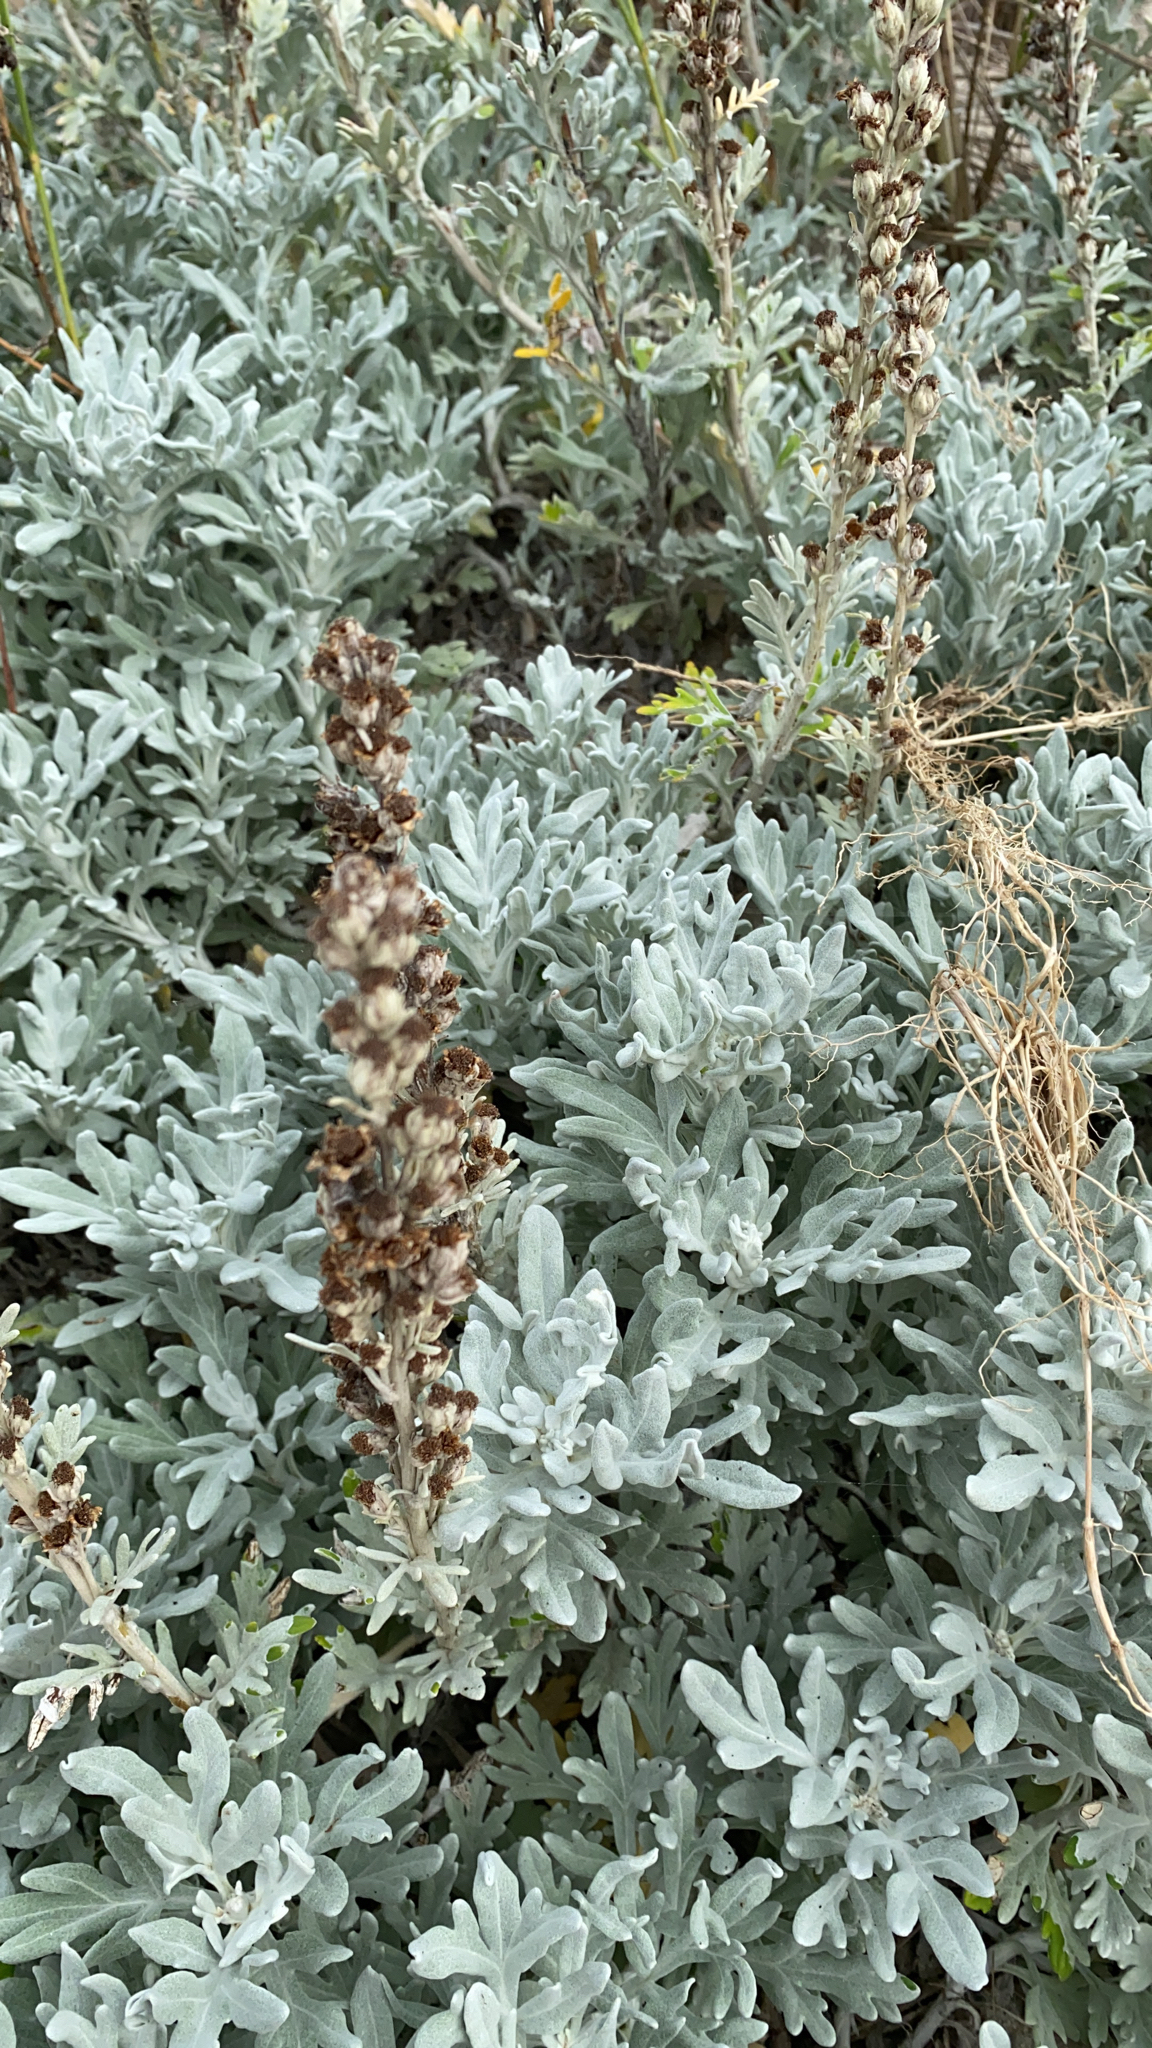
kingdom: Plantae
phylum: Tracheophyta
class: Magnoliopsida
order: Asterales
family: Asteraceae
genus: Artemisia
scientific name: Artemisia stelleriana
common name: Beach wormwood
